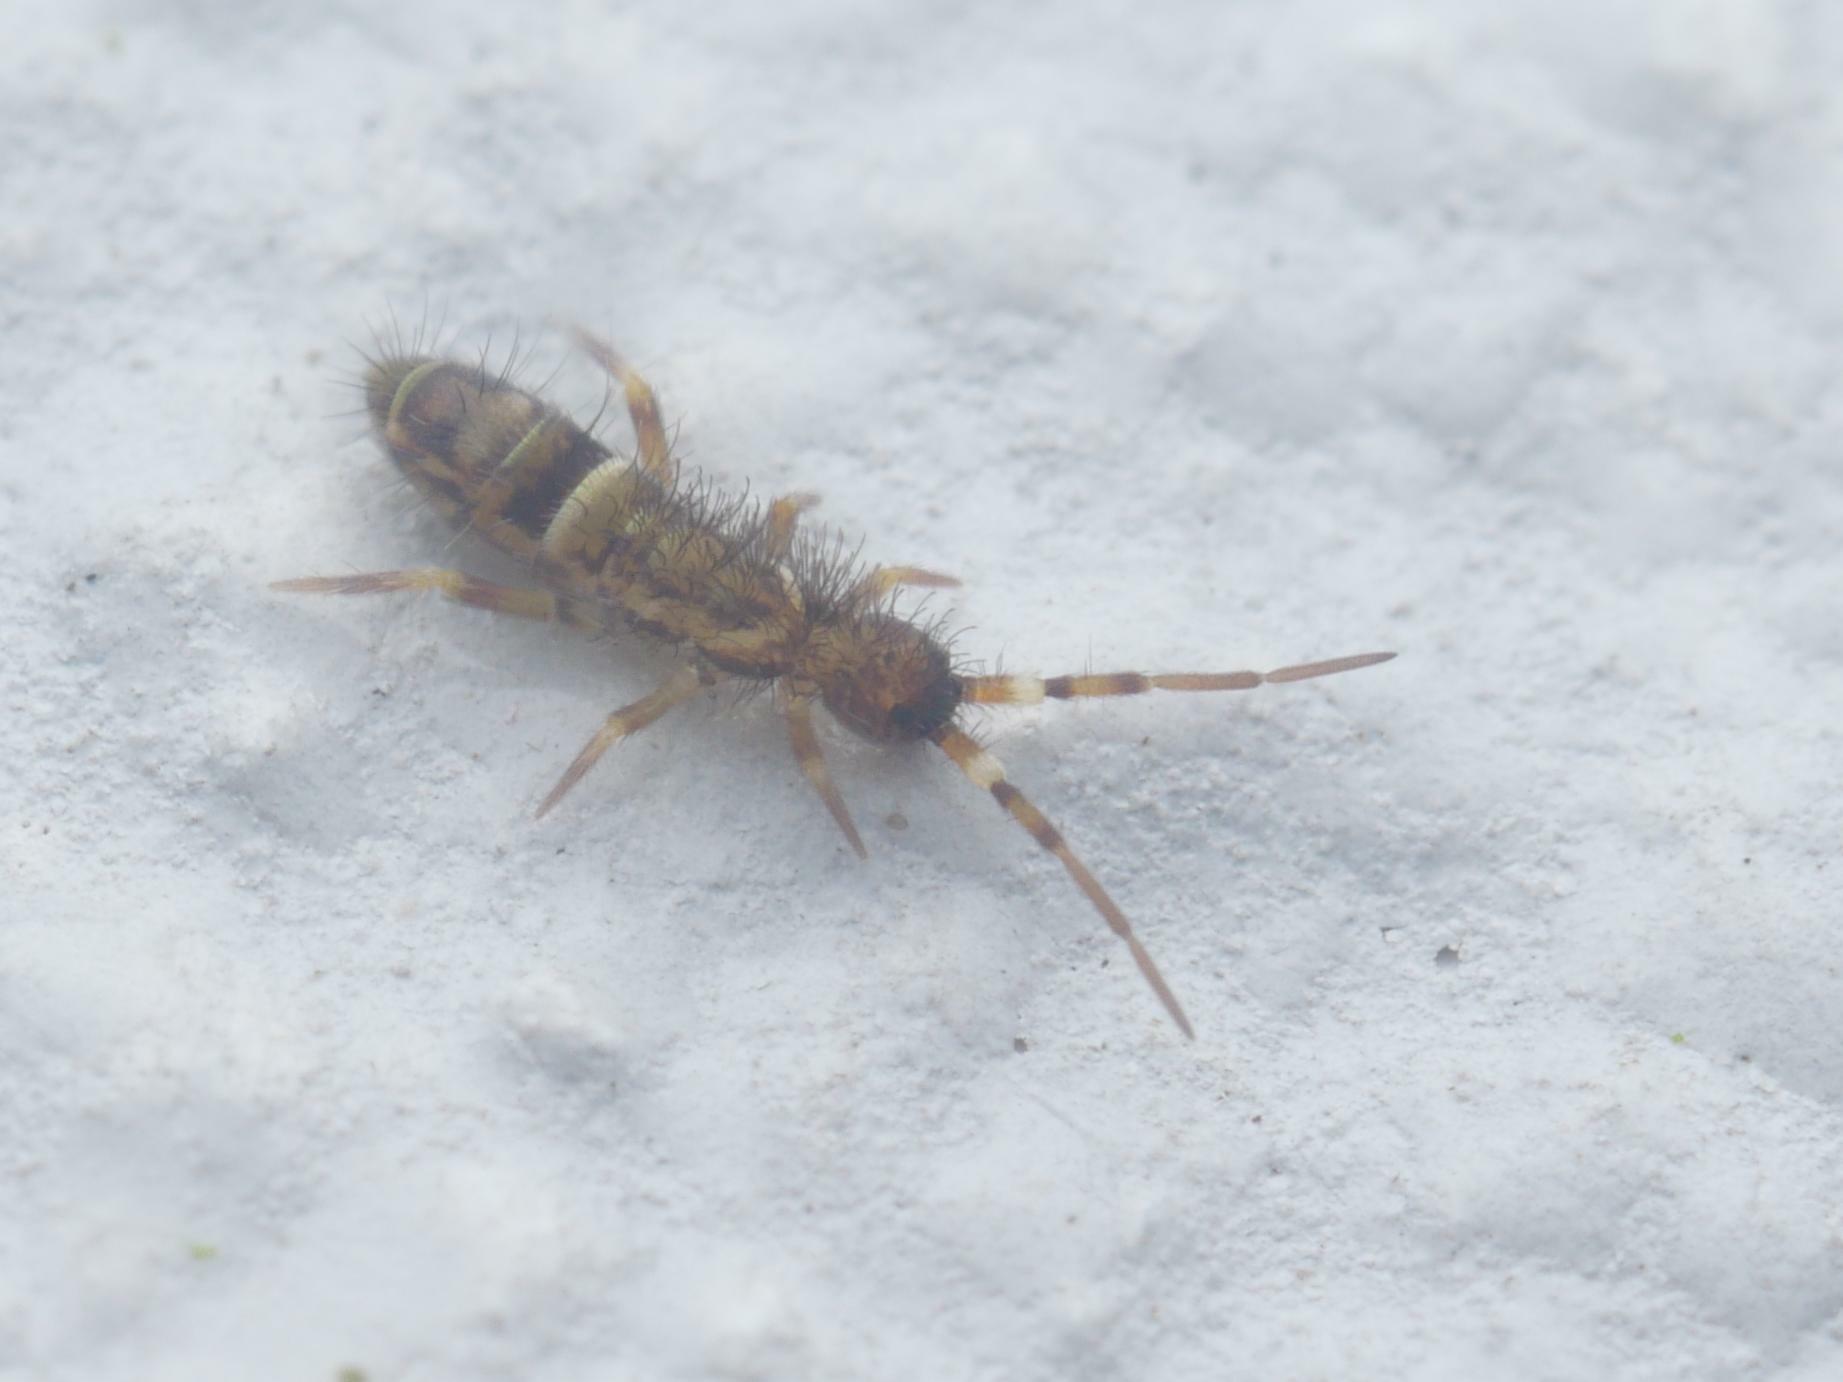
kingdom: Animalia
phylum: Arthropoda
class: Collembola
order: Entomobryomorpha
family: Orchesellidae
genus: Orchesella
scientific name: Orchesella cincta
